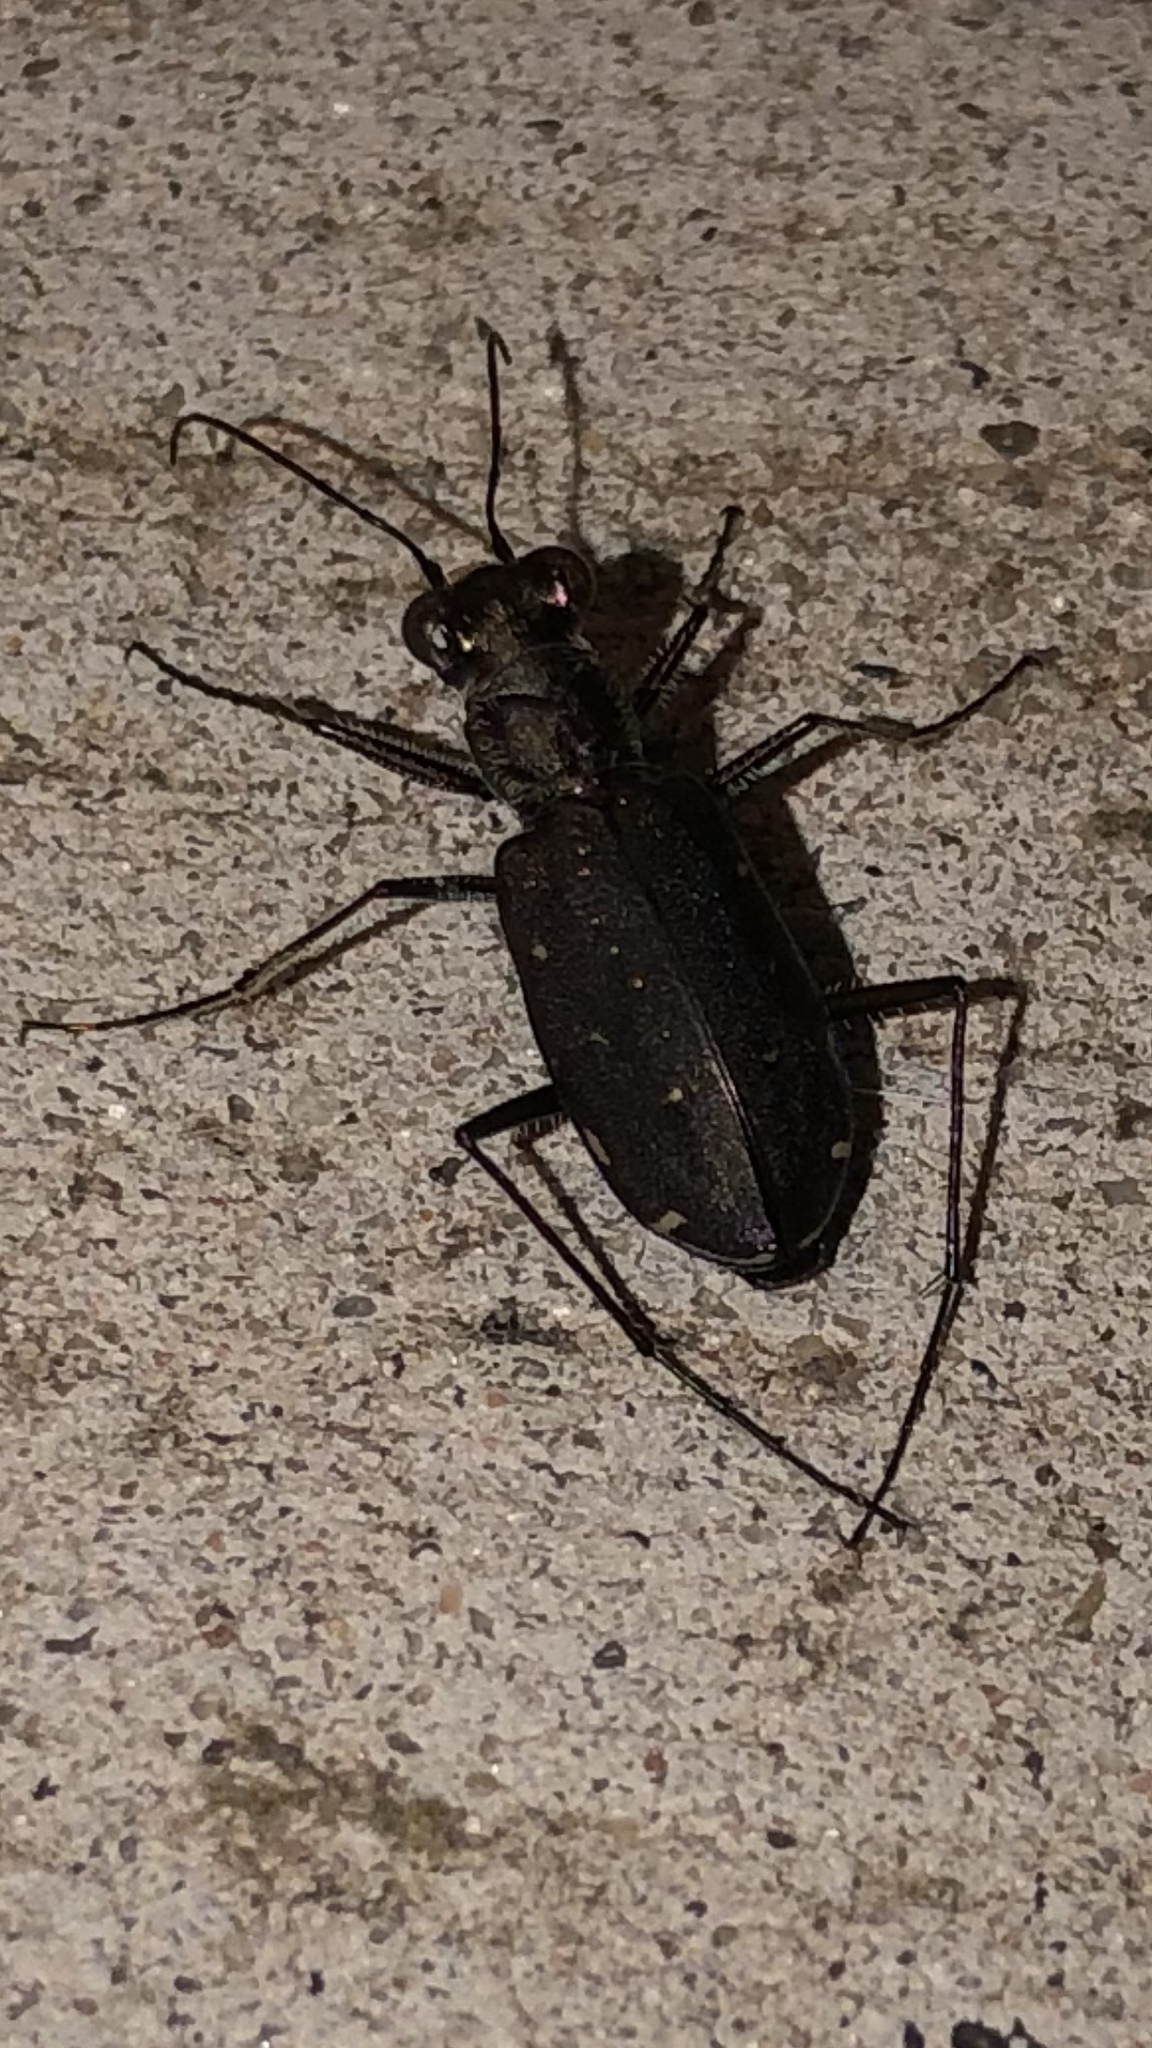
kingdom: Animalia
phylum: Arthropoda
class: Insecta
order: Coleoptera
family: Carabidae
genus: Cicindela
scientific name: Cicindela punctulata
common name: Punctured tiger beetle
